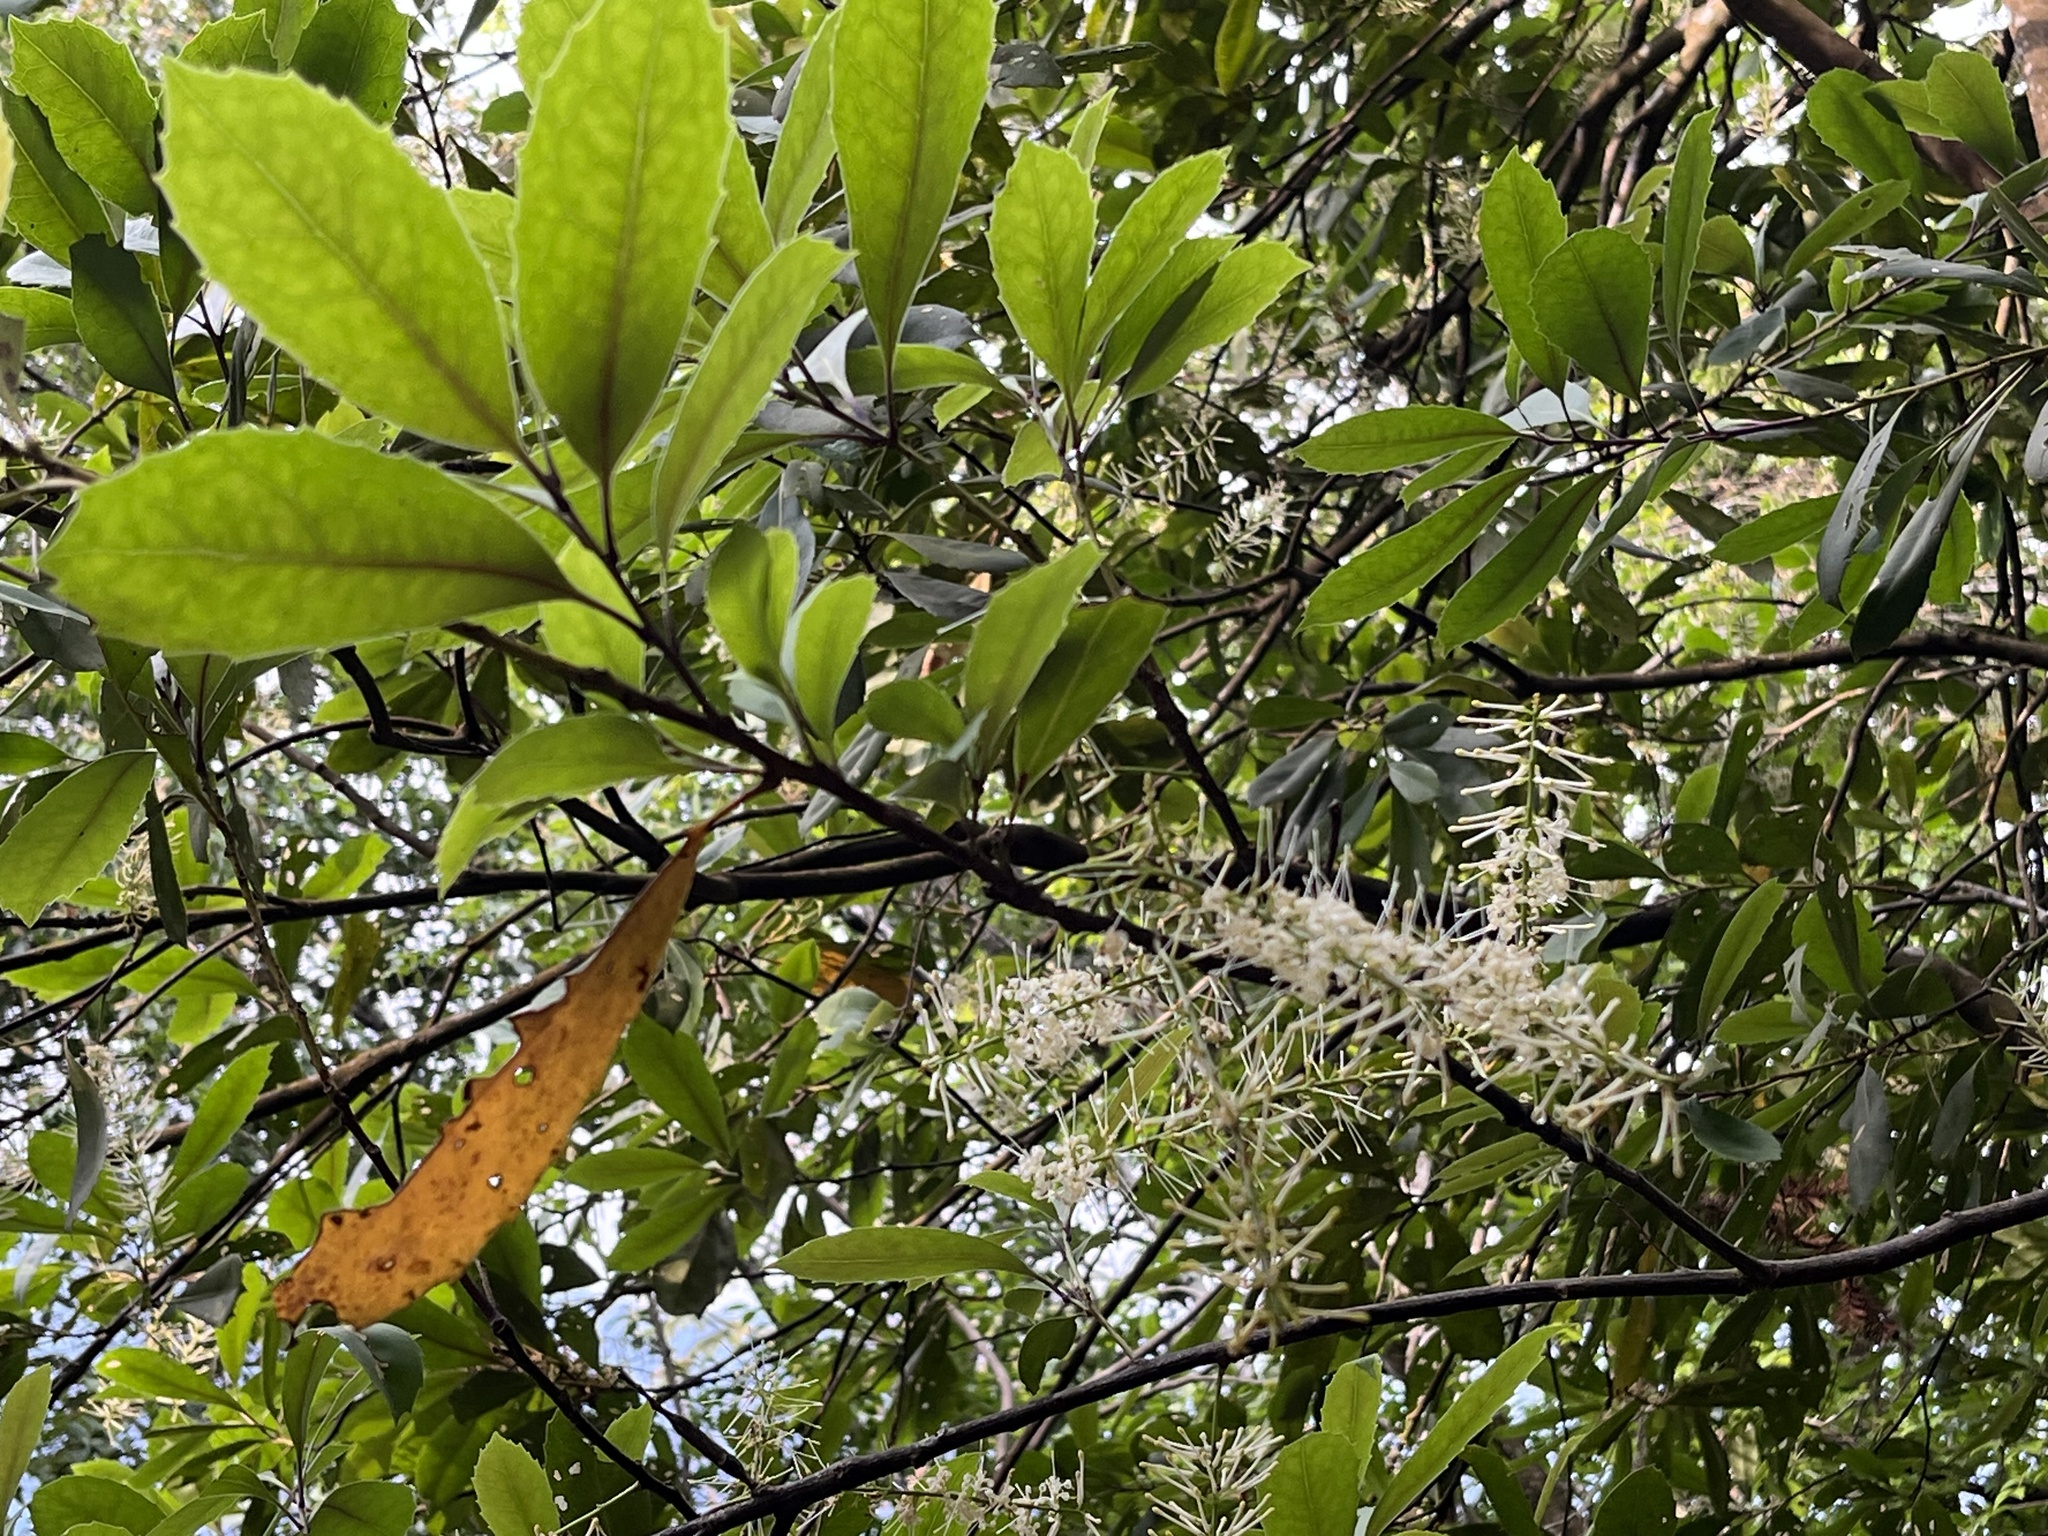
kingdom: Plantae
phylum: Tracheophyta
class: Magnoliopsida
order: Proteales
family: Proteaceae
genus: Helicia
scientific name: Helicia rengetiensis
